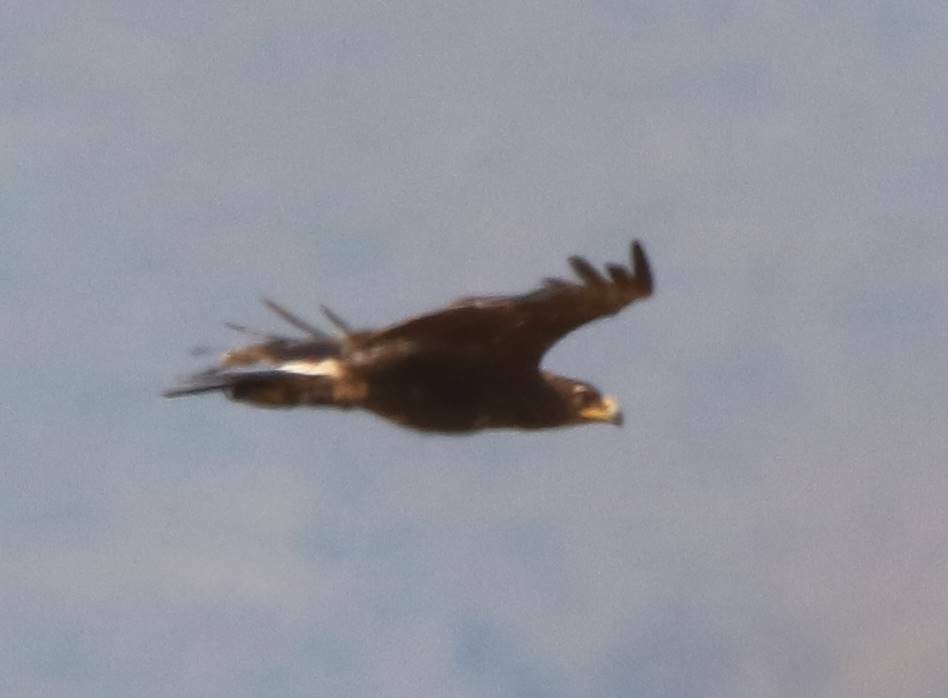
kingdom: Animalia
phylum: Chordata
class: Aves
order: Accipitriformes
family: Accipitridae
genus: Aquila
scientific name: Aquila clanga
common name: Greater spotted eagle
